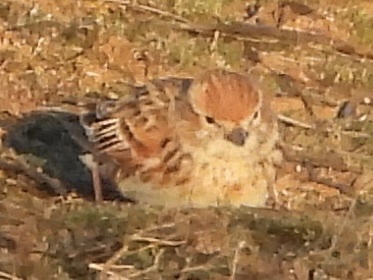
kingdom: Animalia
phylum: Chordata
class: Aves
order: Passeriformes
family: Alaudidae
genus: Melanocorypha
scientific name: Melanocorypha leucoptera
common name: White-winged lark
